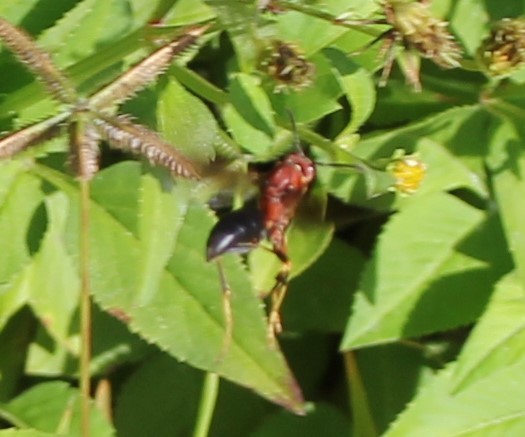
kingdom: Animalia
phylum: Arthropoda
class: Insecta
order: Hymenoptera
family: Eumenidae
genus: Polistes
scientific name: Polistes metricus
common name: Metric paper wasp
